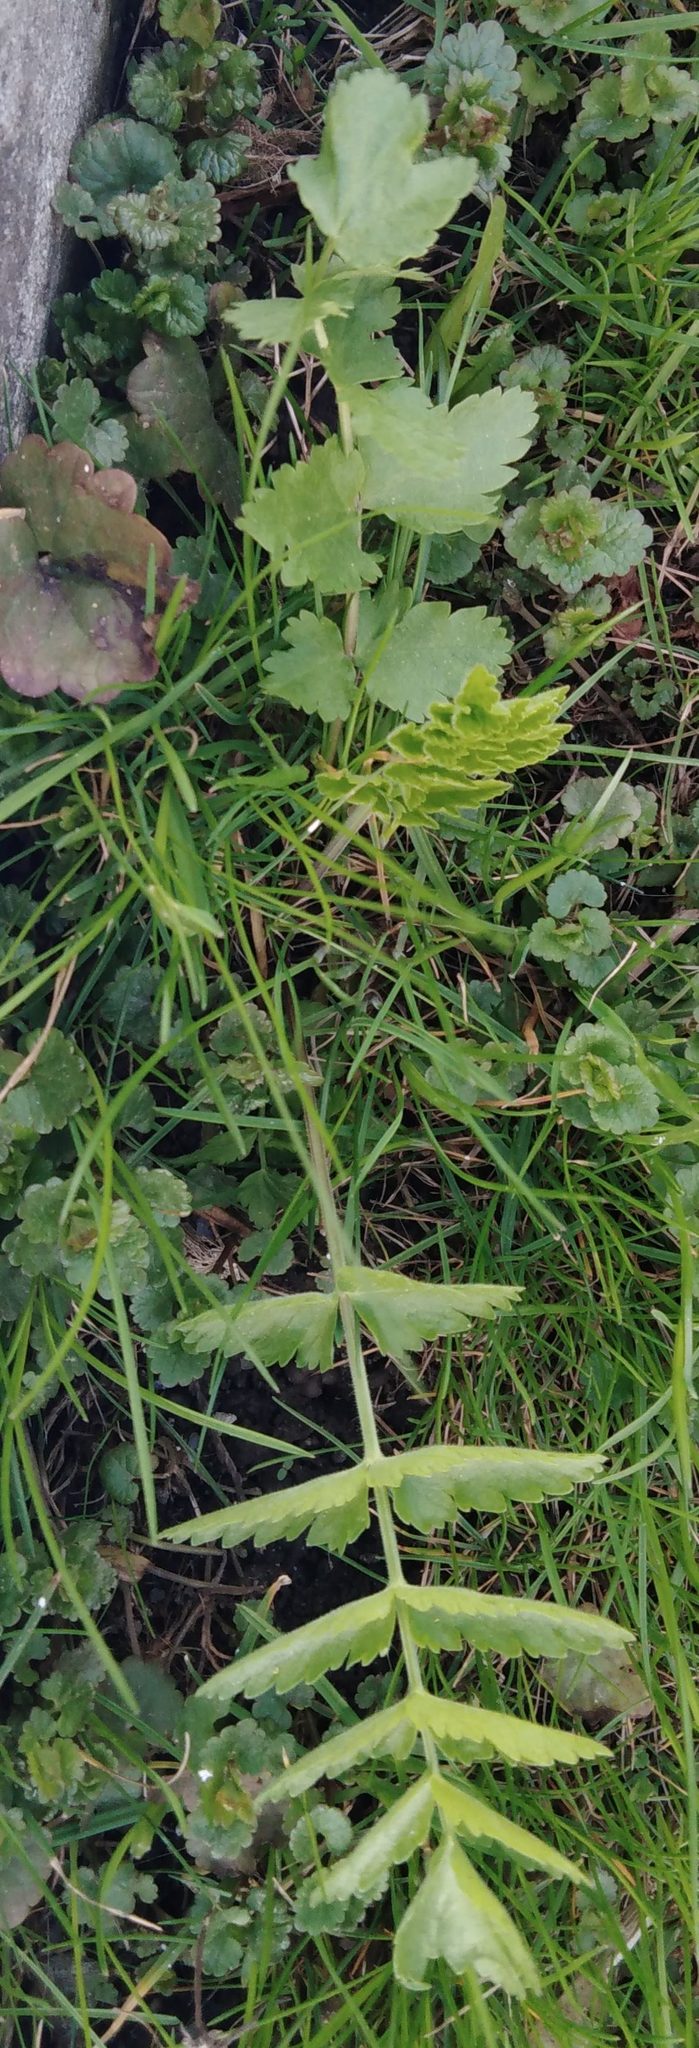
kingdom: Plantae
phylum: Tracheophyta
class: Magnoliopsida
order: Apiales
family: Apiaceae
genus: Pimpinella
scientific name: Pimpinella saxifraga
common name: Burnet-saxifrage
